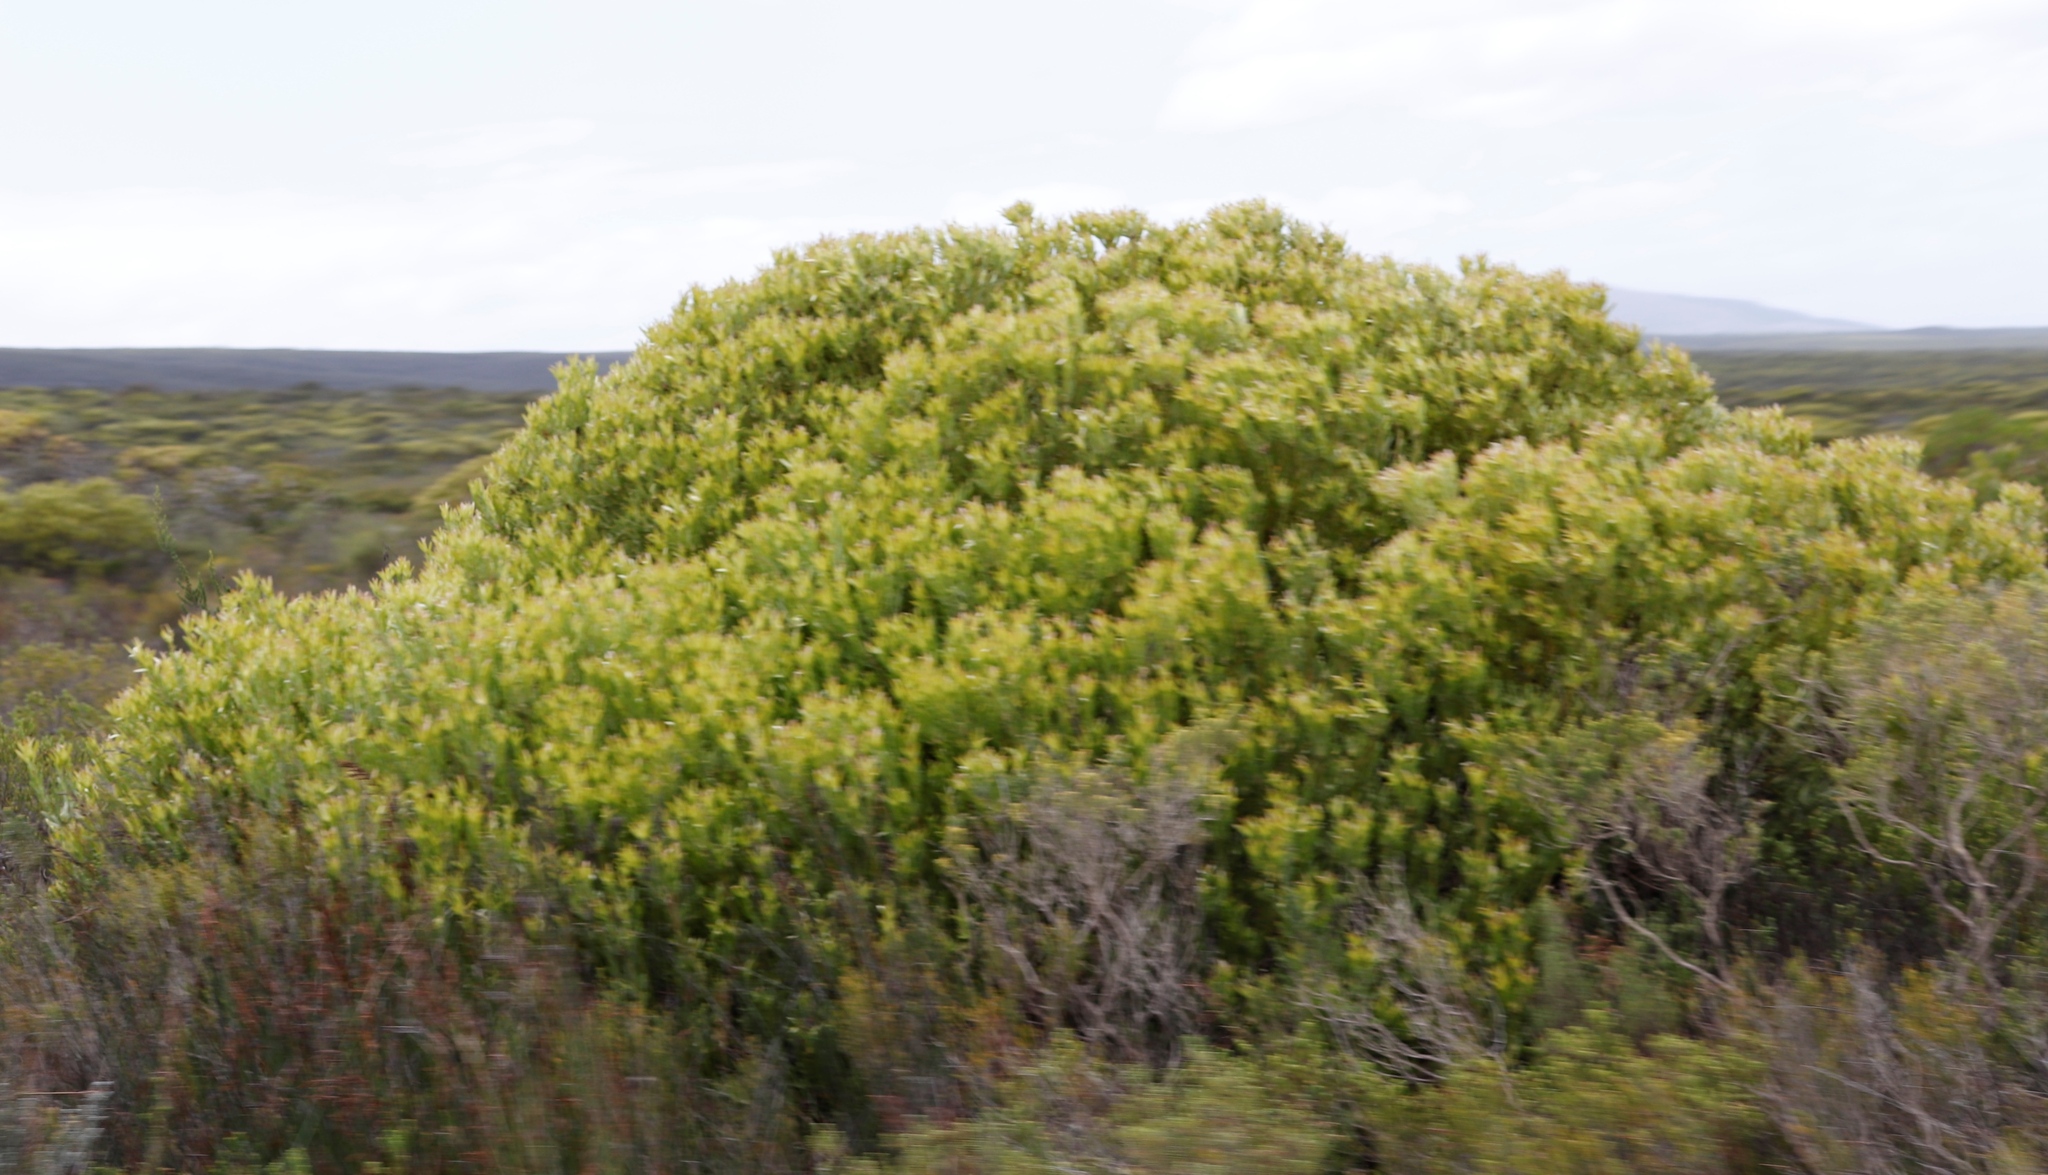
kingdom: Plantae
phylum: Tracheophyta
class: Magnoliopsida
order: Proteales
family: Proteaceae
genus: Leucadendron
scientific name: Leucadendron meridianum
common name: Limestone conebush
